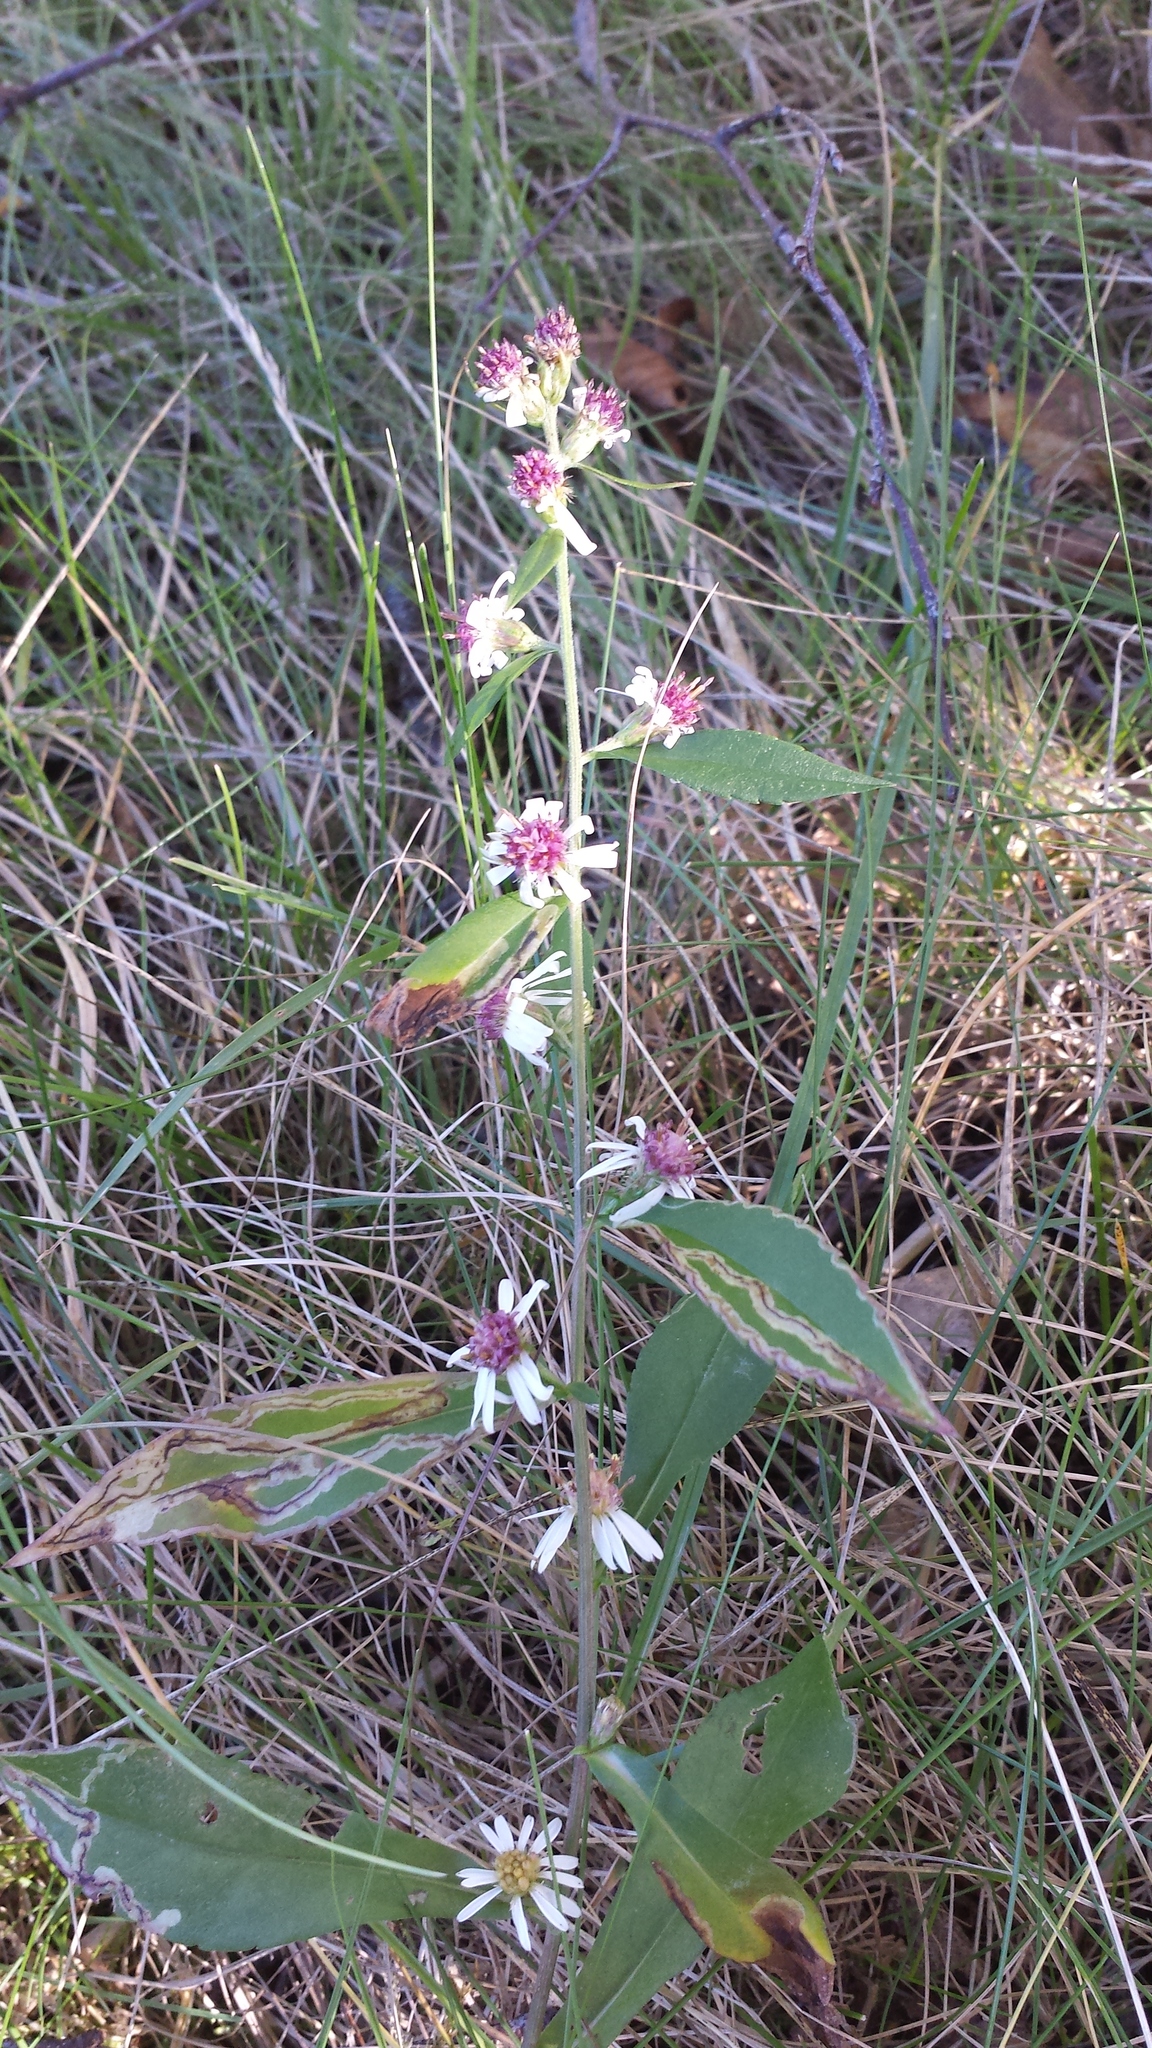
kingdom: Plantae
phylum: Tracheophyta
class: Magnoliopsida
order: Asterales
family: Asteraceae
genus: Symphyotrichum
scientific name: Symphyotrichum lateriflorum
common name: Calico aster
